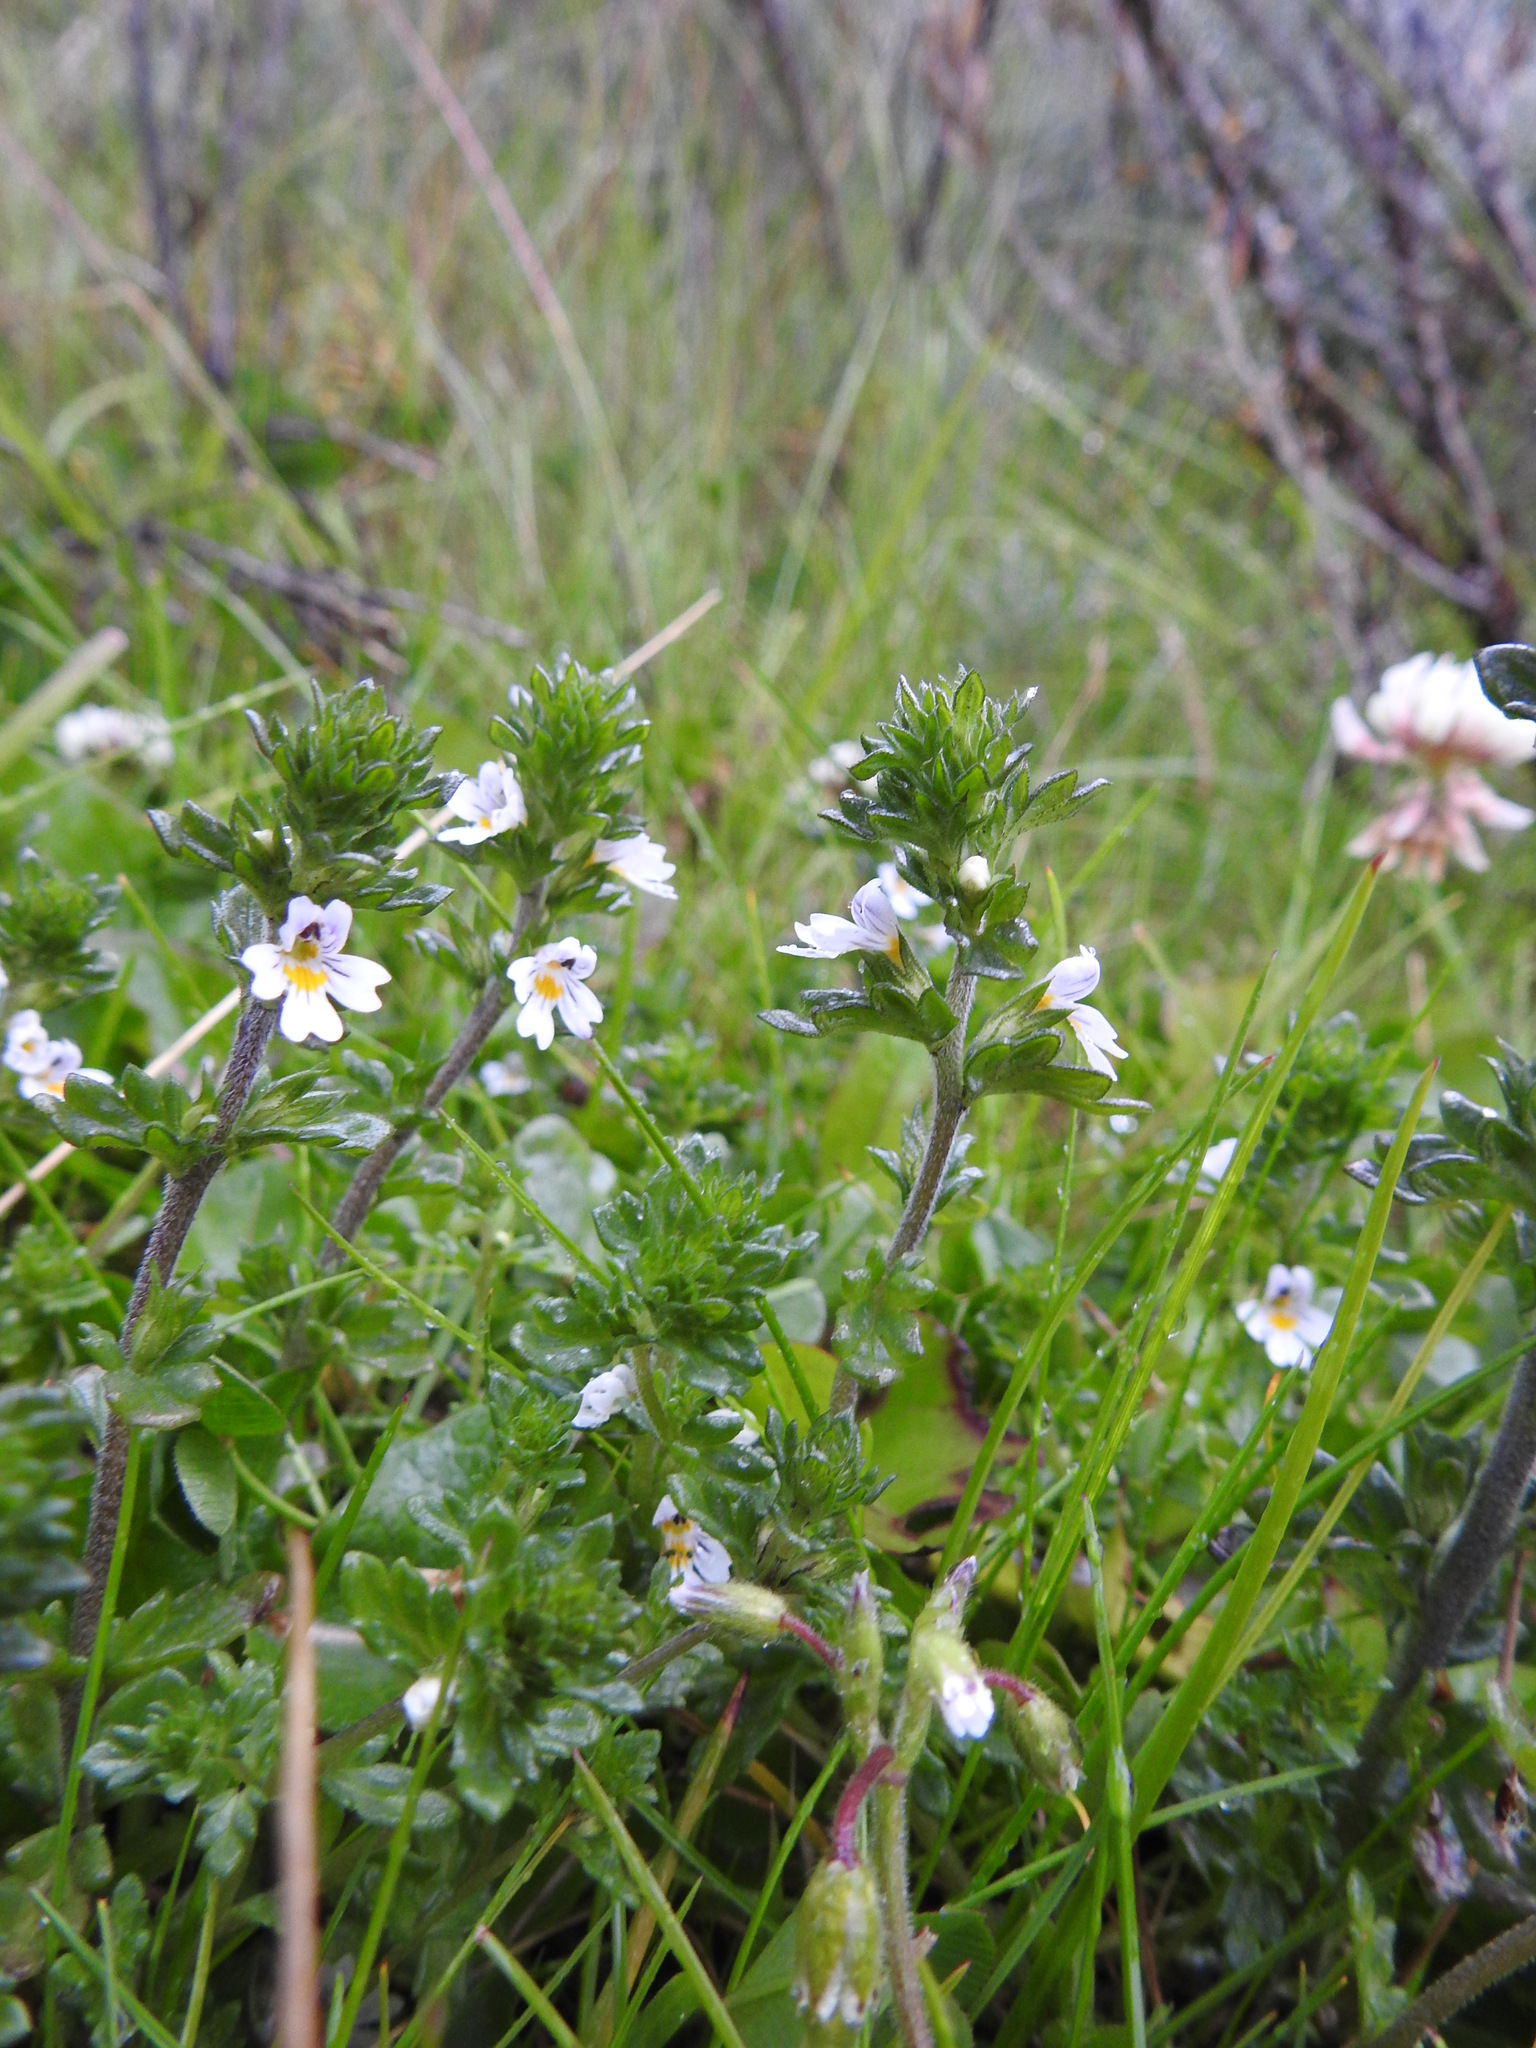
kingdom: Plantae
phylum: Tracheophyta
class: Magnoliopsida
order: Lamiales
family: Orobanchaceae
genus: Euphrasia
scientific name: Euphrasia officinalis
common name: Eyebright
